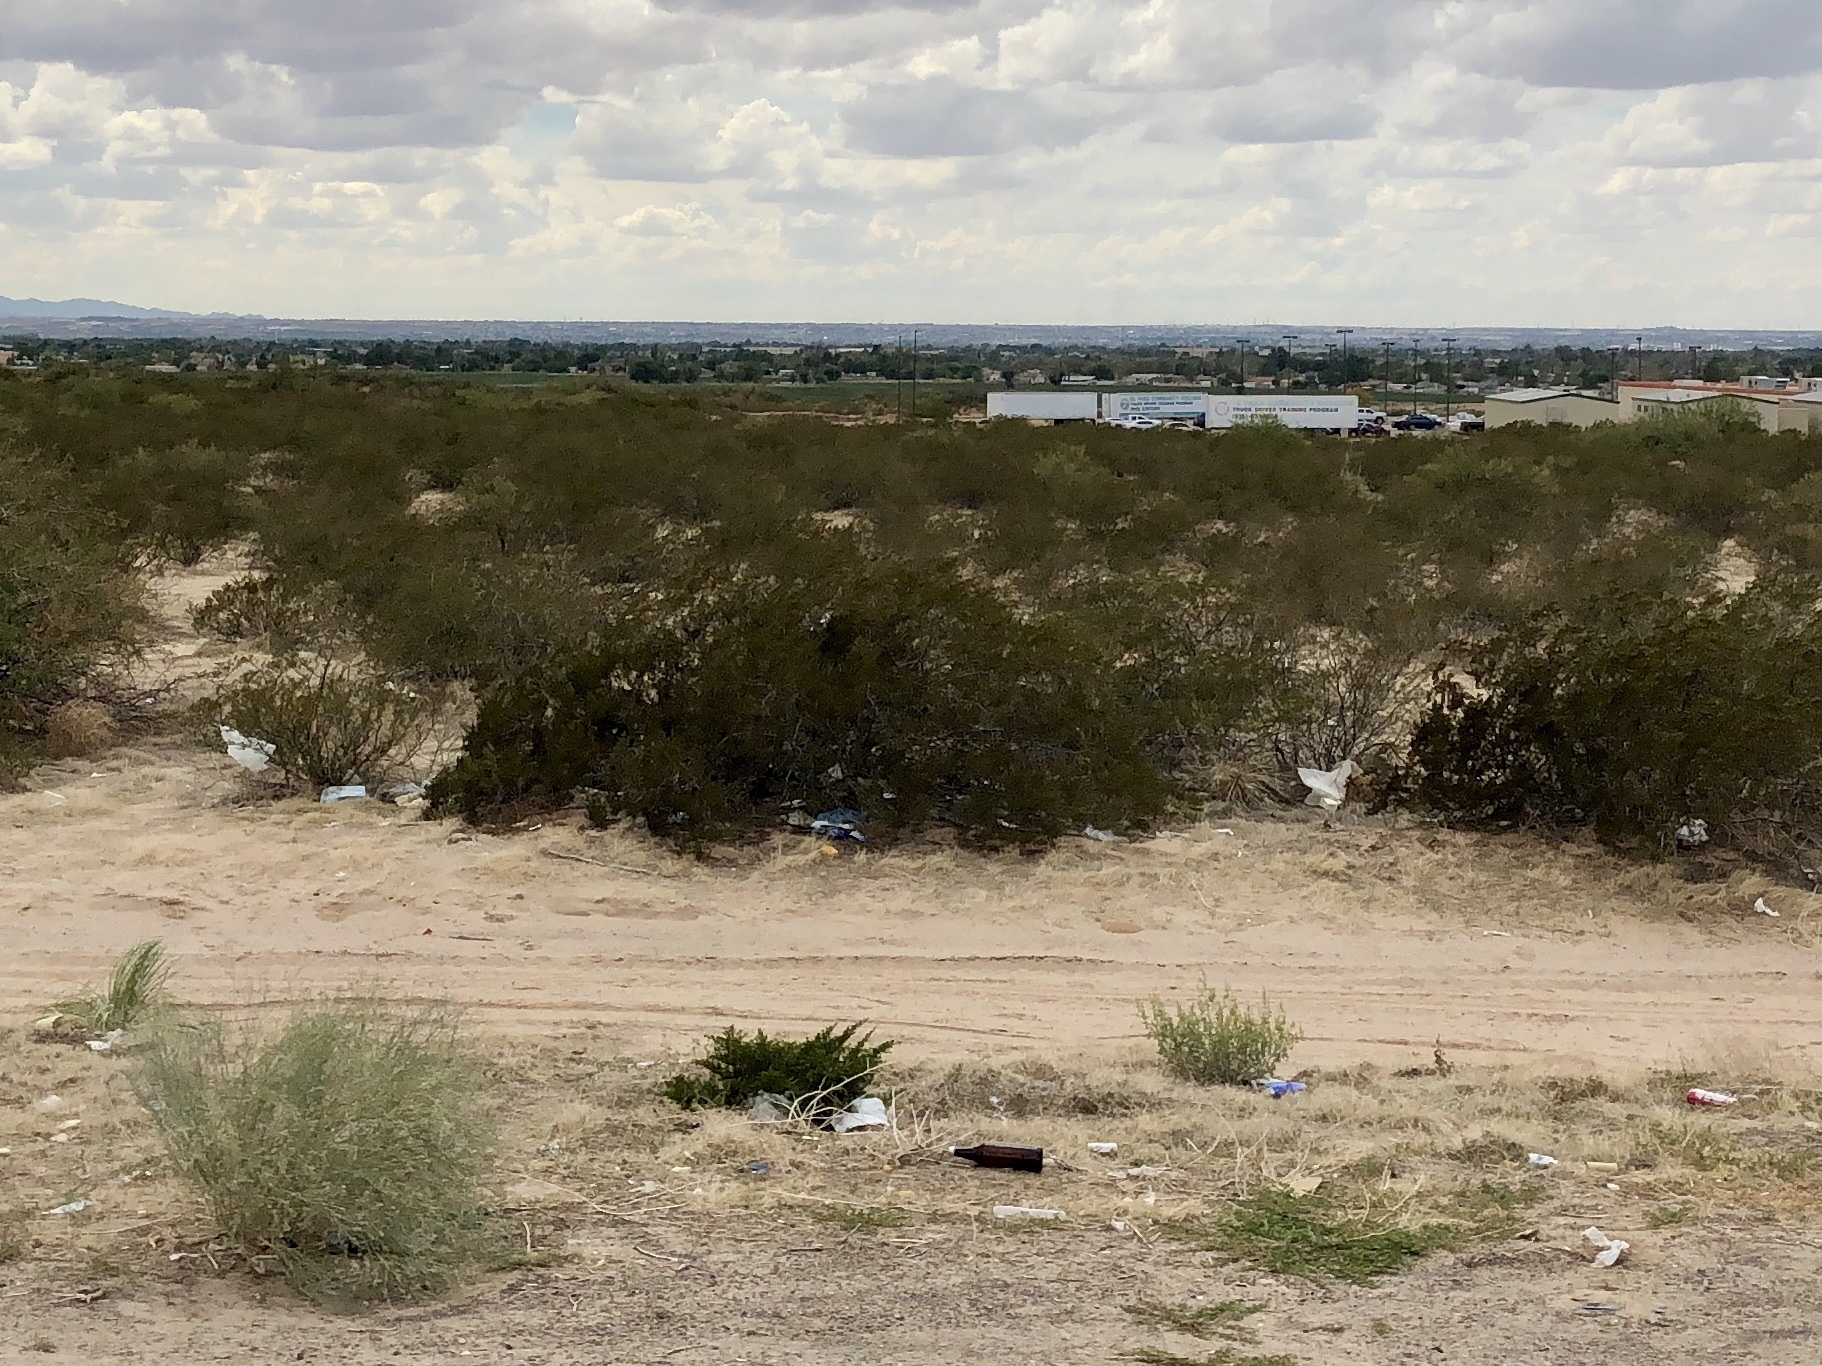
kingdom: Plantae
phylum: Tracheophyta
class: Magnoliopsida
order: Zygophyllales
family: Zygophyllaceae
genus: Larrea
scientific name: Larrea tridentata
